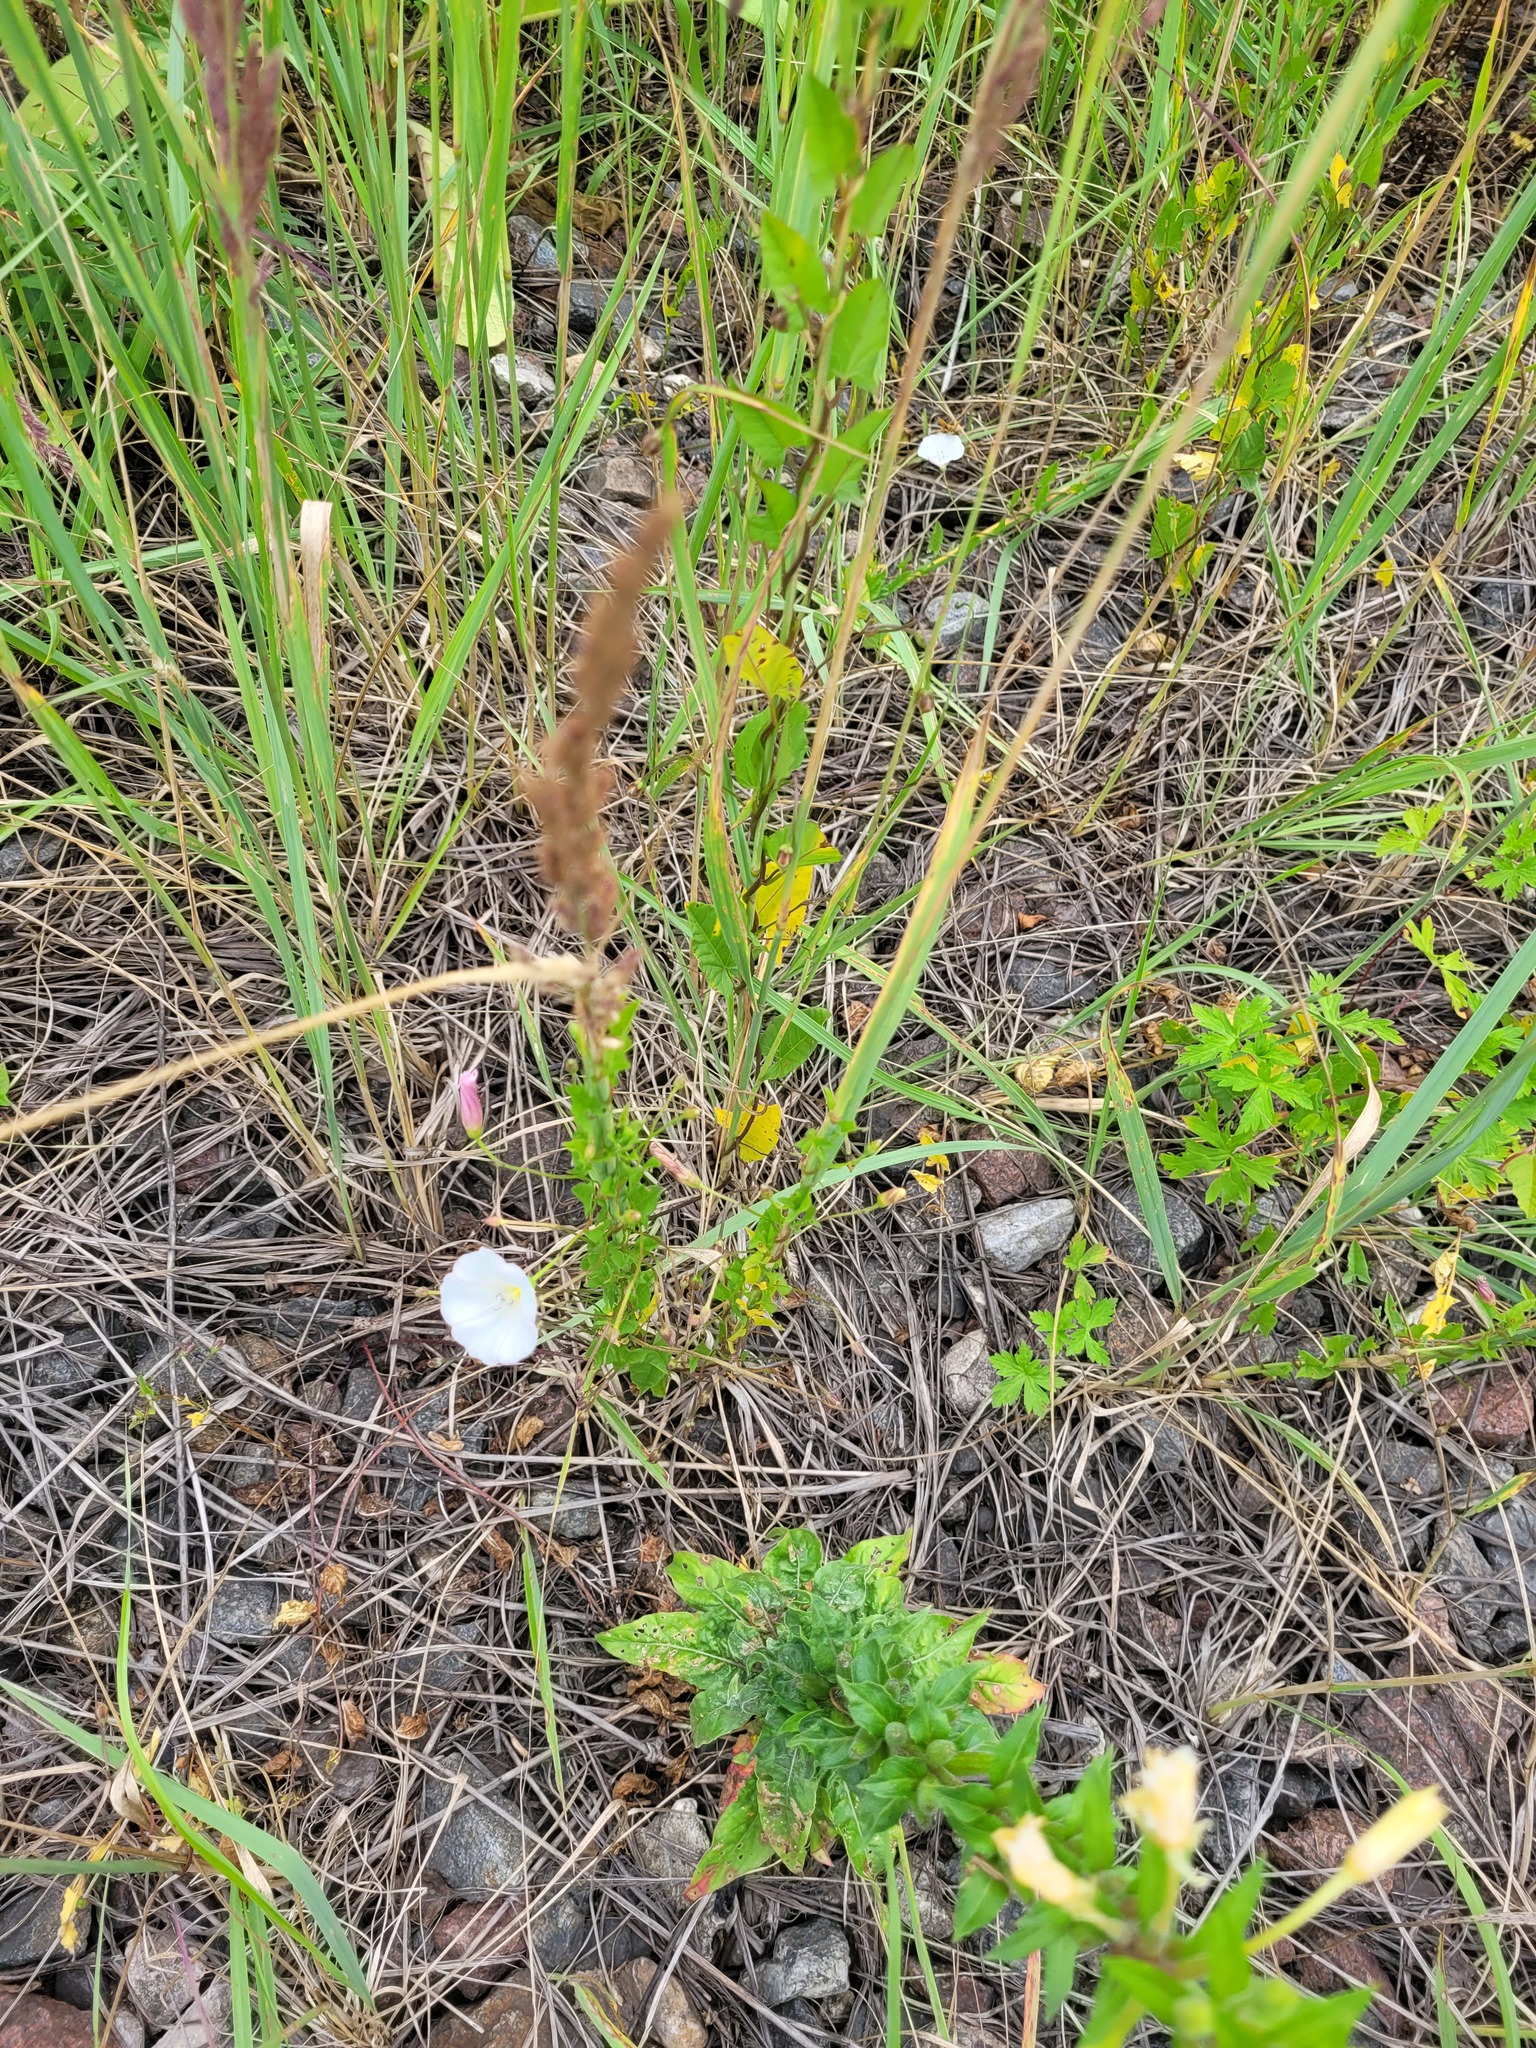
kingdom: Plantae
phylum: Tracheophyta
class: Magnoliopsida
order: Solanales
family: Convolvulaceae
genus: Convolvulus
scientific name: Convolvulus arvensis
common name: Field bindweed
